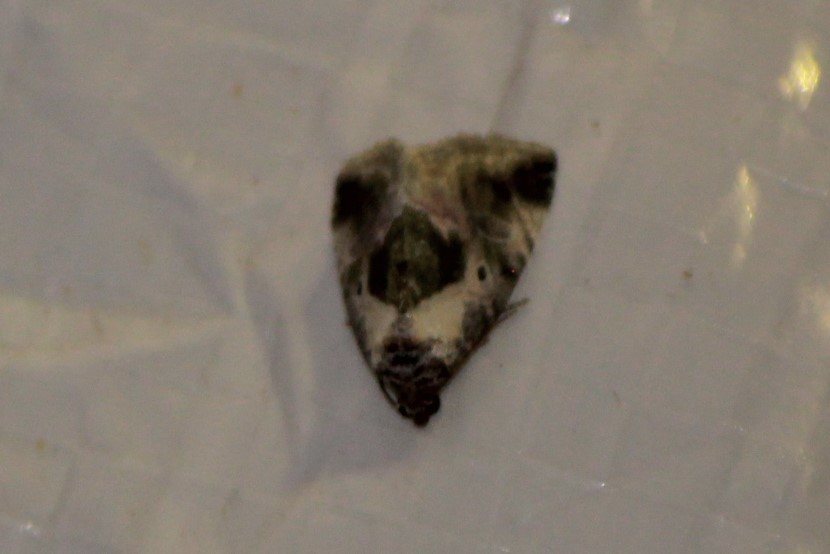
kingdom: Animalia
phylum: Arthropoda
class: Insecta
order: Lepidoptera
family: Noctuidae
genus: Maliattha
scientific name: Maliattha synochitis
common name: Black-dotted glyph
